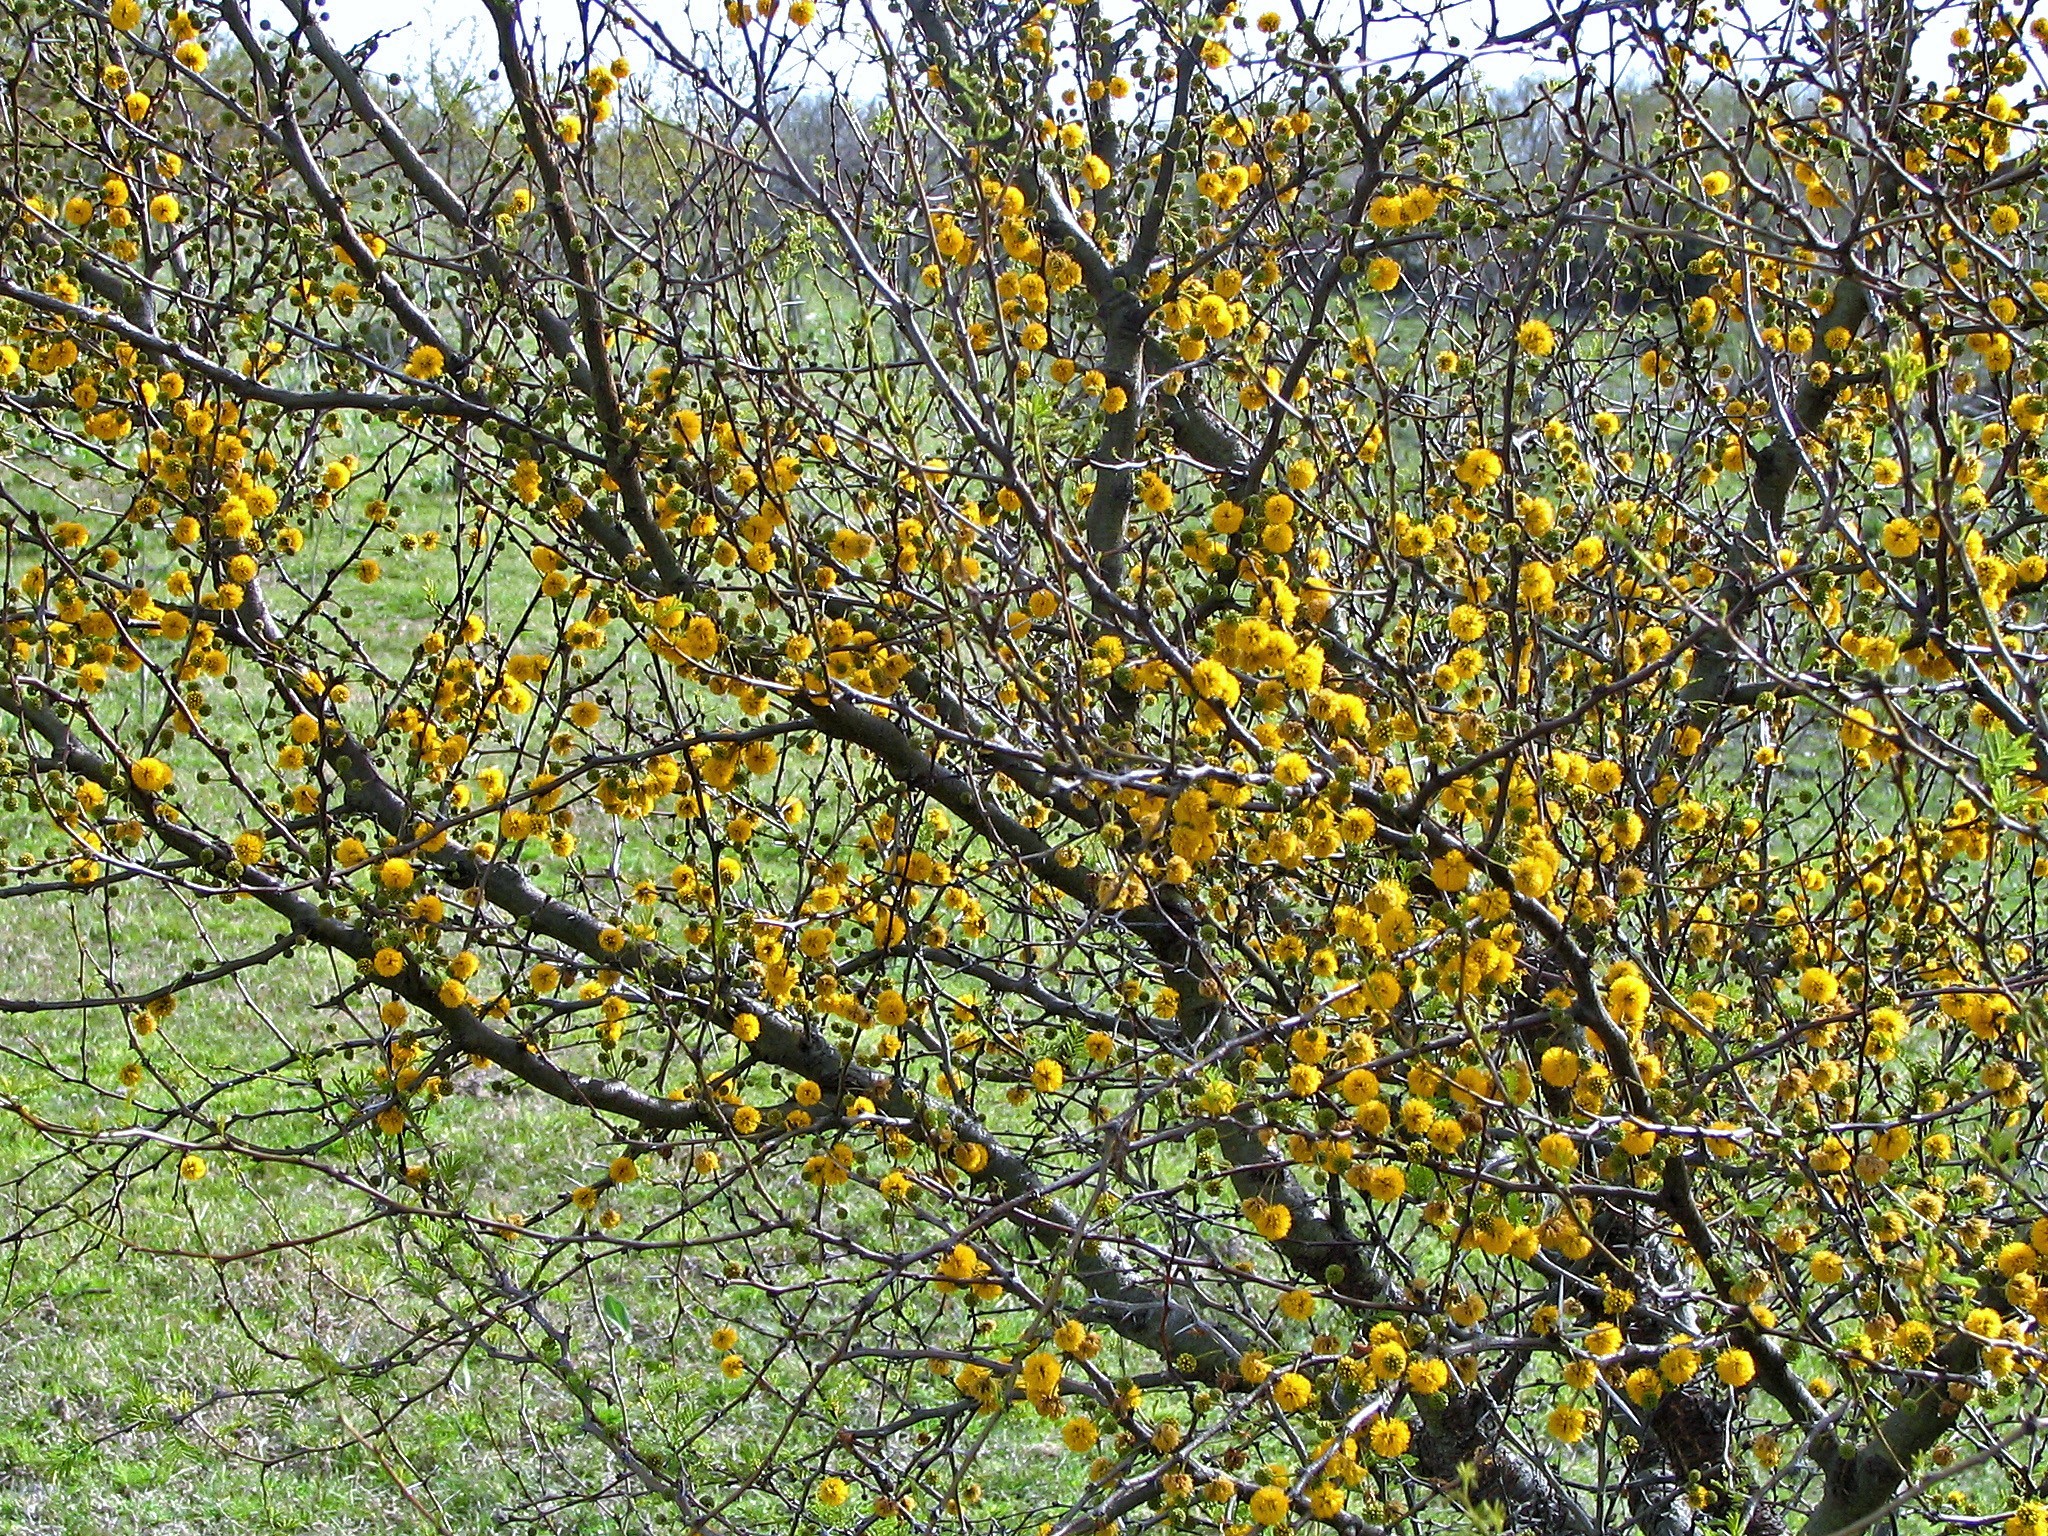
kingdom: Plantae
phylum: Tracheophyta
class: Magnoliopsida
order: Fabales
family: Fabaceae
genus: Vachellia
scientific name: Vachellia caven
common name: Roman cassie
